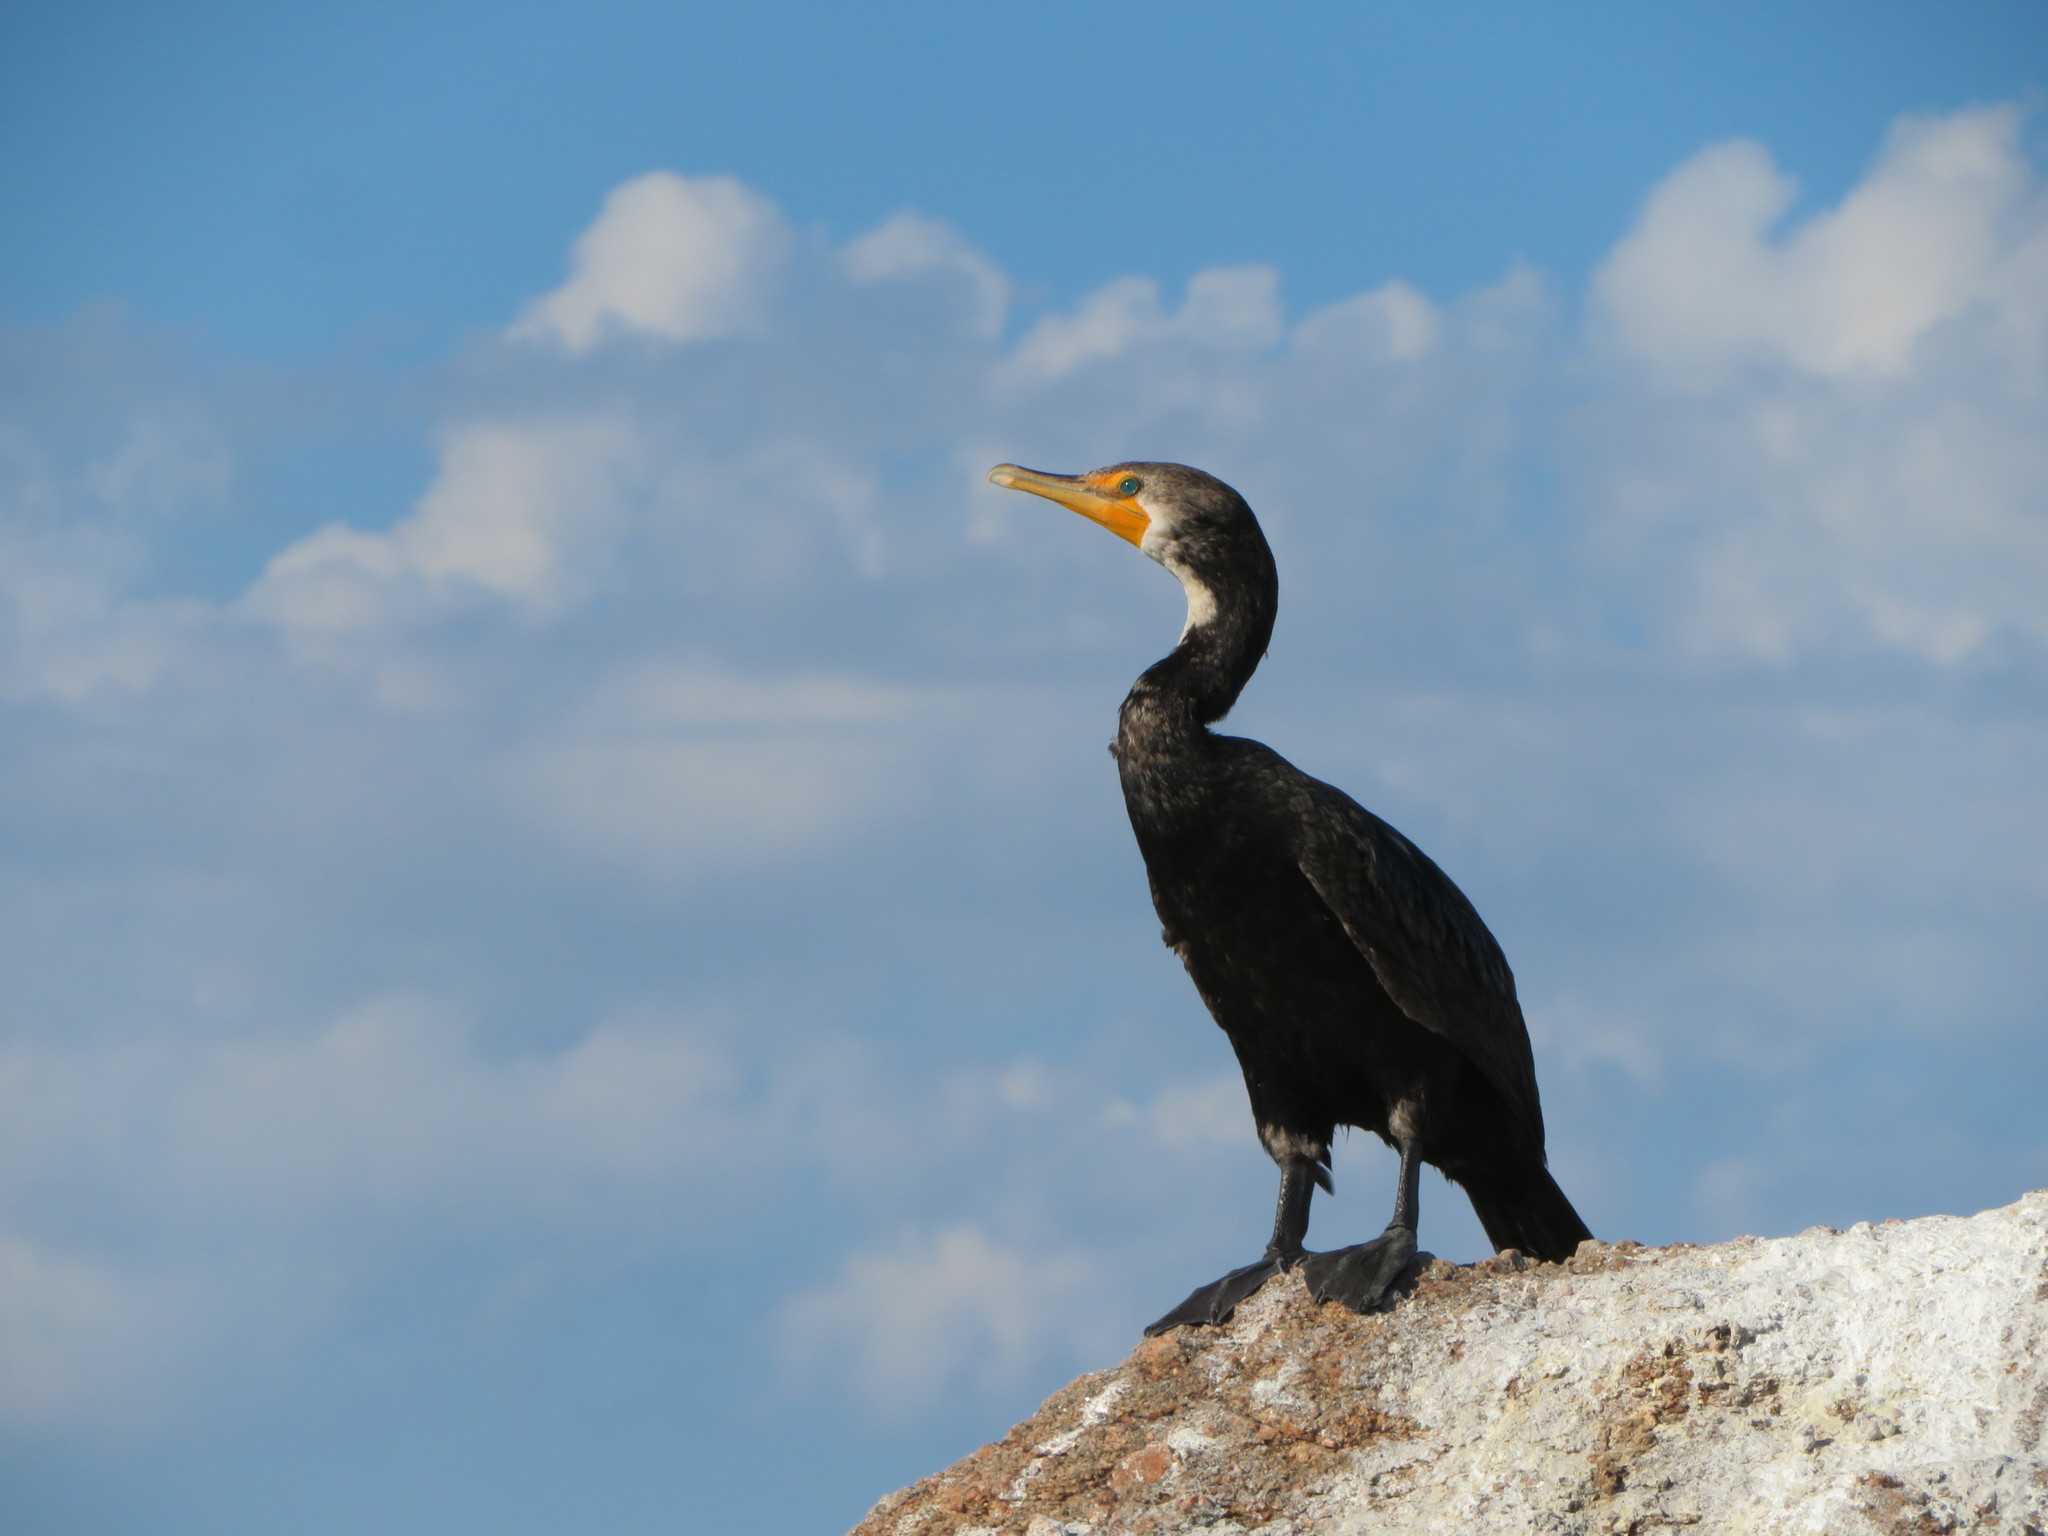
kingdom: Animalia
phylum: Chordata
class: Aves
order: Suliformes
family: Phalacrocoracidae
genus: Phalacrocorax
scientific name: Phalacrocorax auritus
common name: Double-crested cormorant
